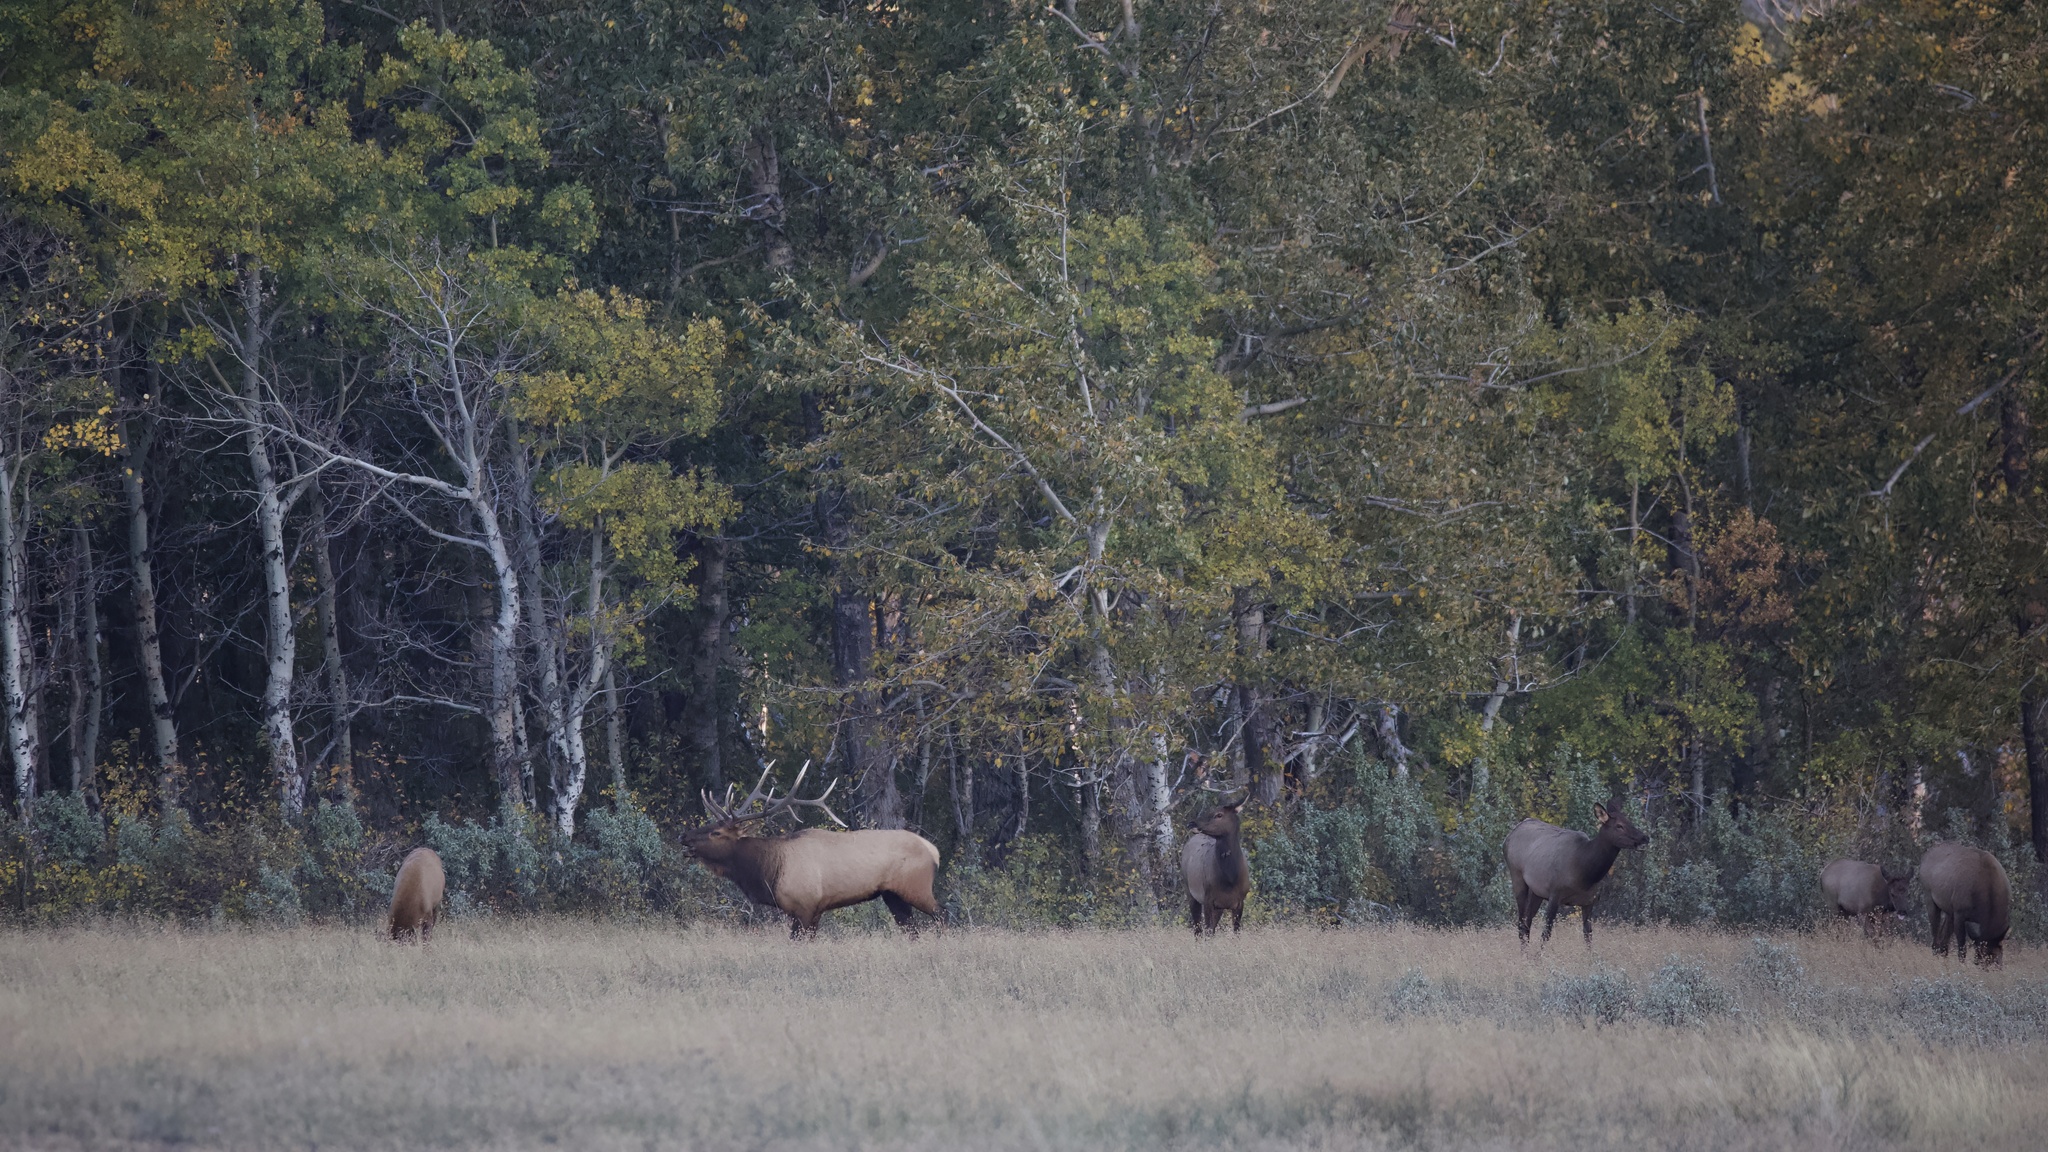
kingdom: Animalia
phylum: Chordata
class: Mammalia
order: Artiodactyla
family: Cervidae
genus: Cervus
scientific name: Cervus elaphus
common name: Red deer
